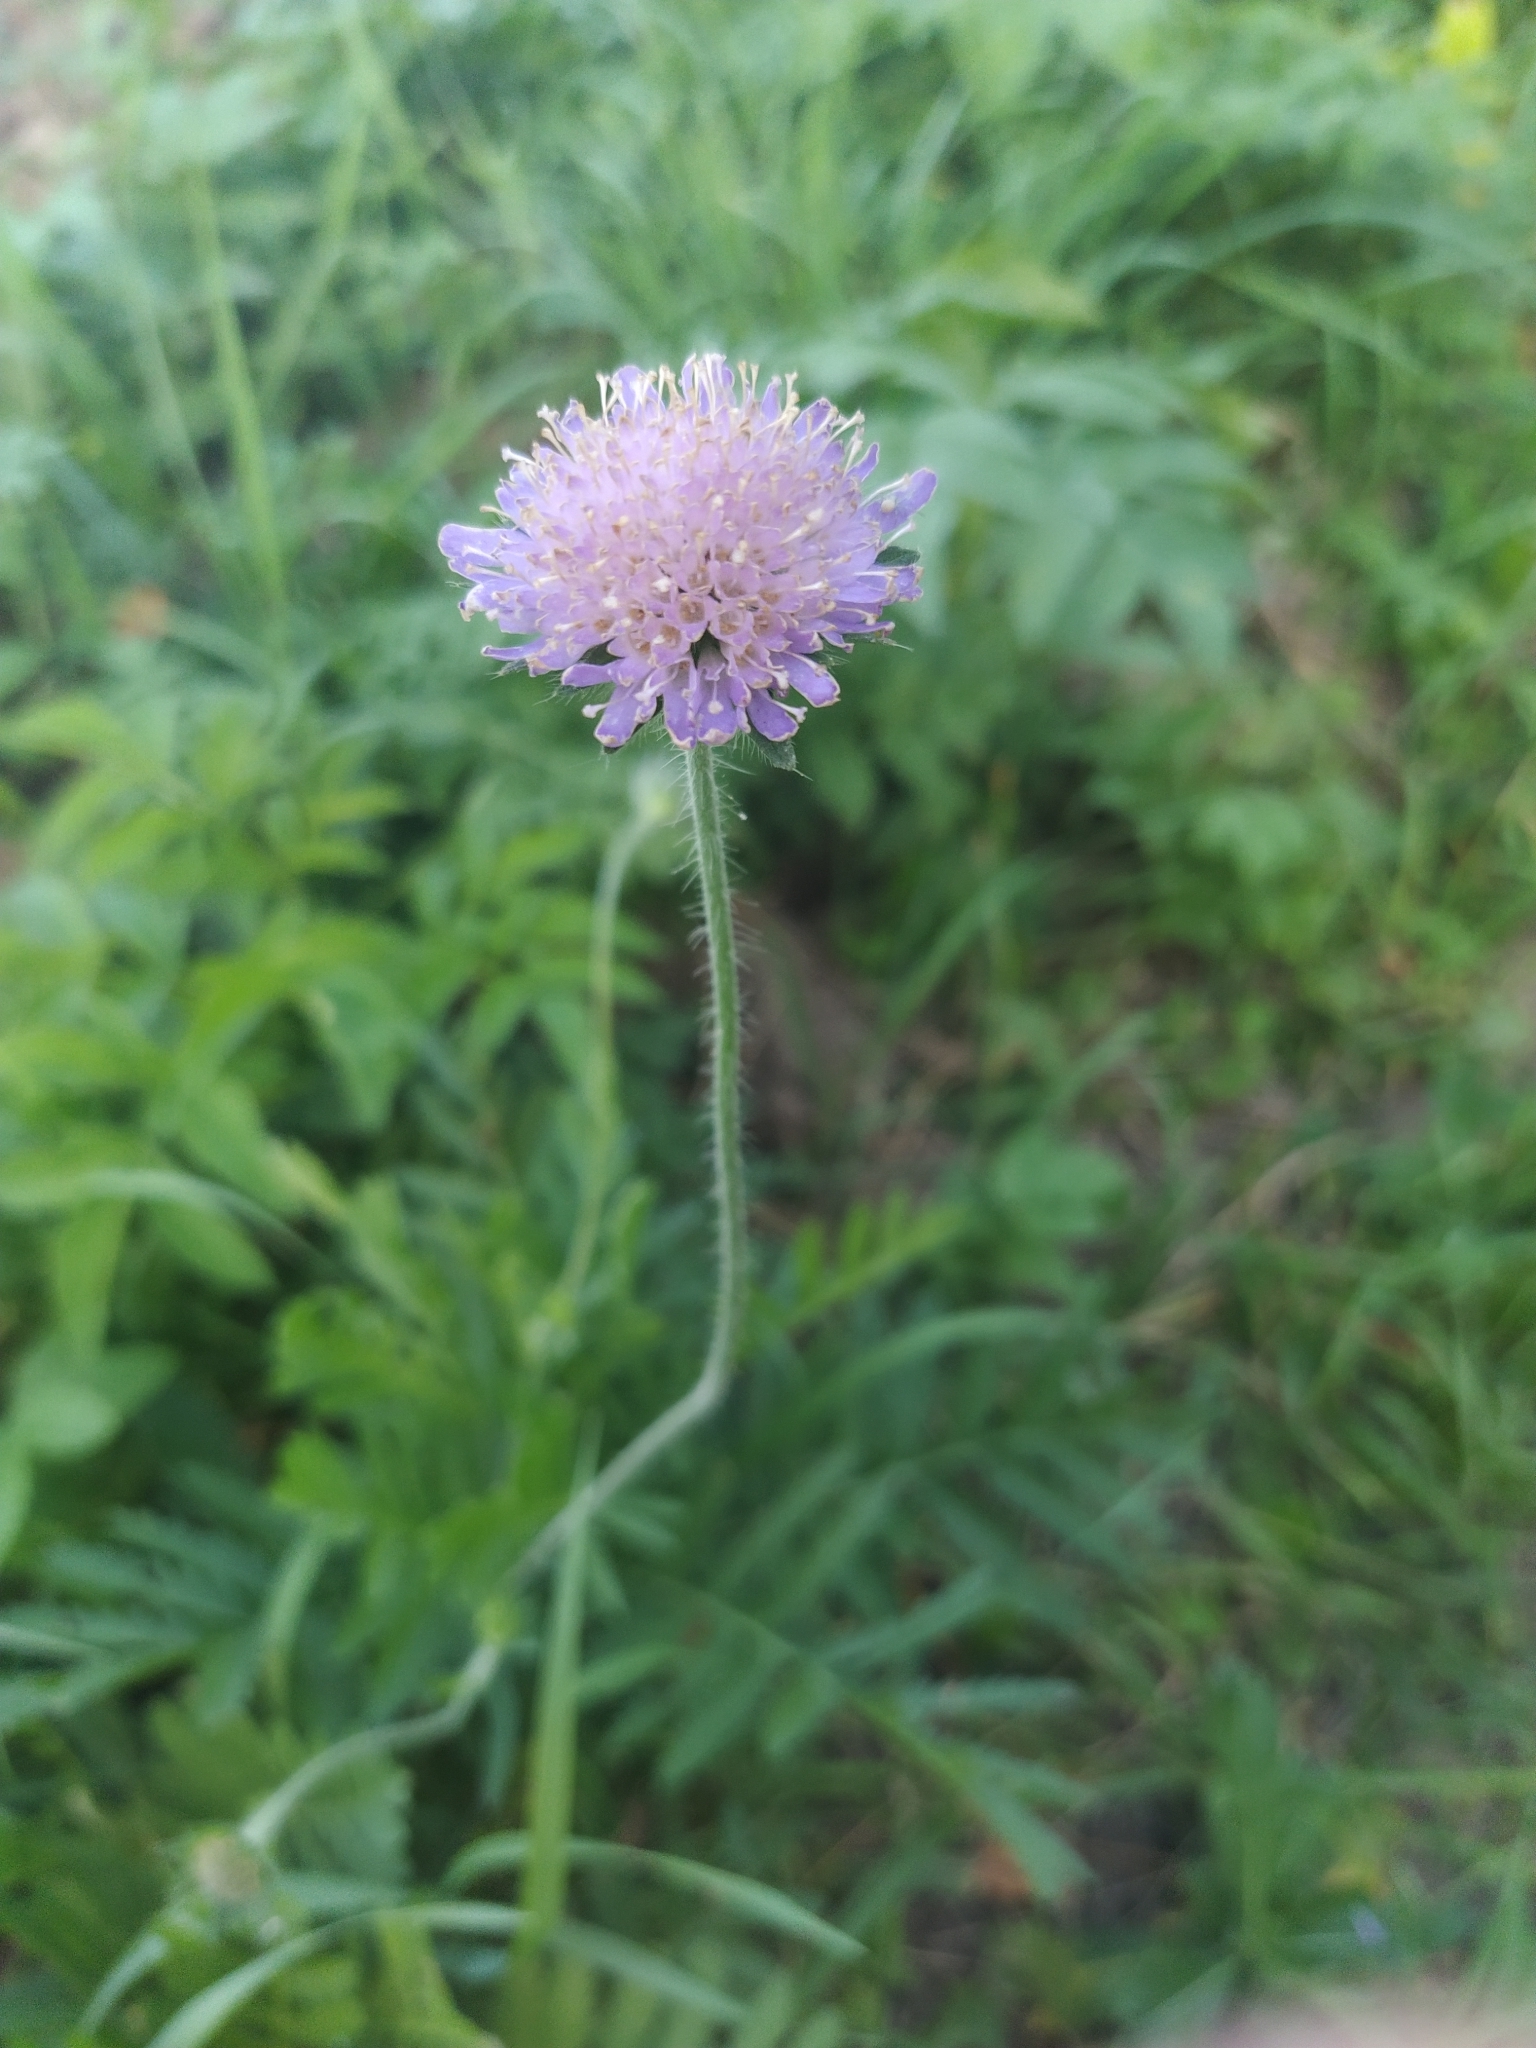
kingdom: Plantae
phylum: Tracheophyta
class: Magnoliopsida
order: Dipsacales
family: Caprifoliaceae
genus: Knautia
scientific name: Knautia arvensis
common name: Field scabiosa
